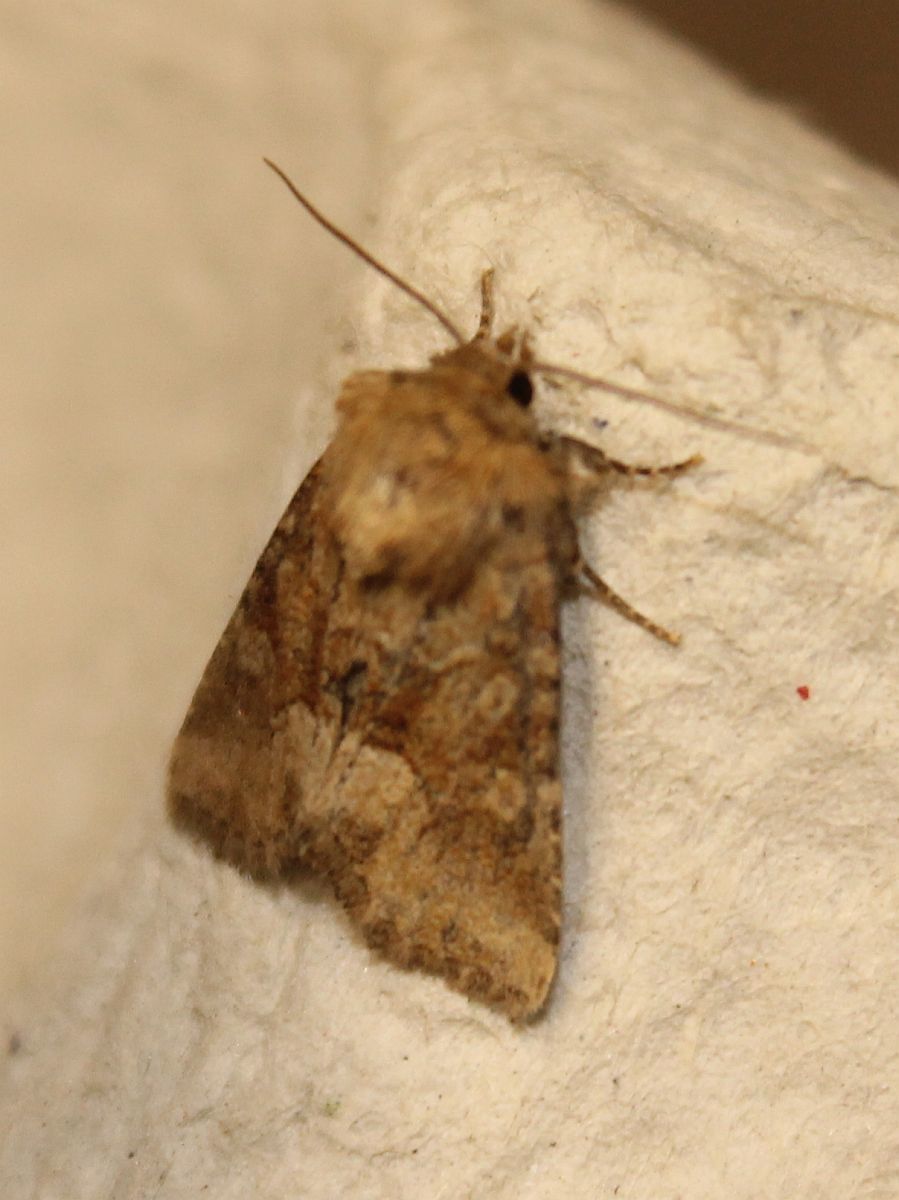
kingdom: Animalia
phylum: Arthropoda
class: Insecta
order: Lepidoptera
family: Noctuidae
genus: Oligia
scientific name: Oligia fasciuncula
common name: Middle-barred minor
